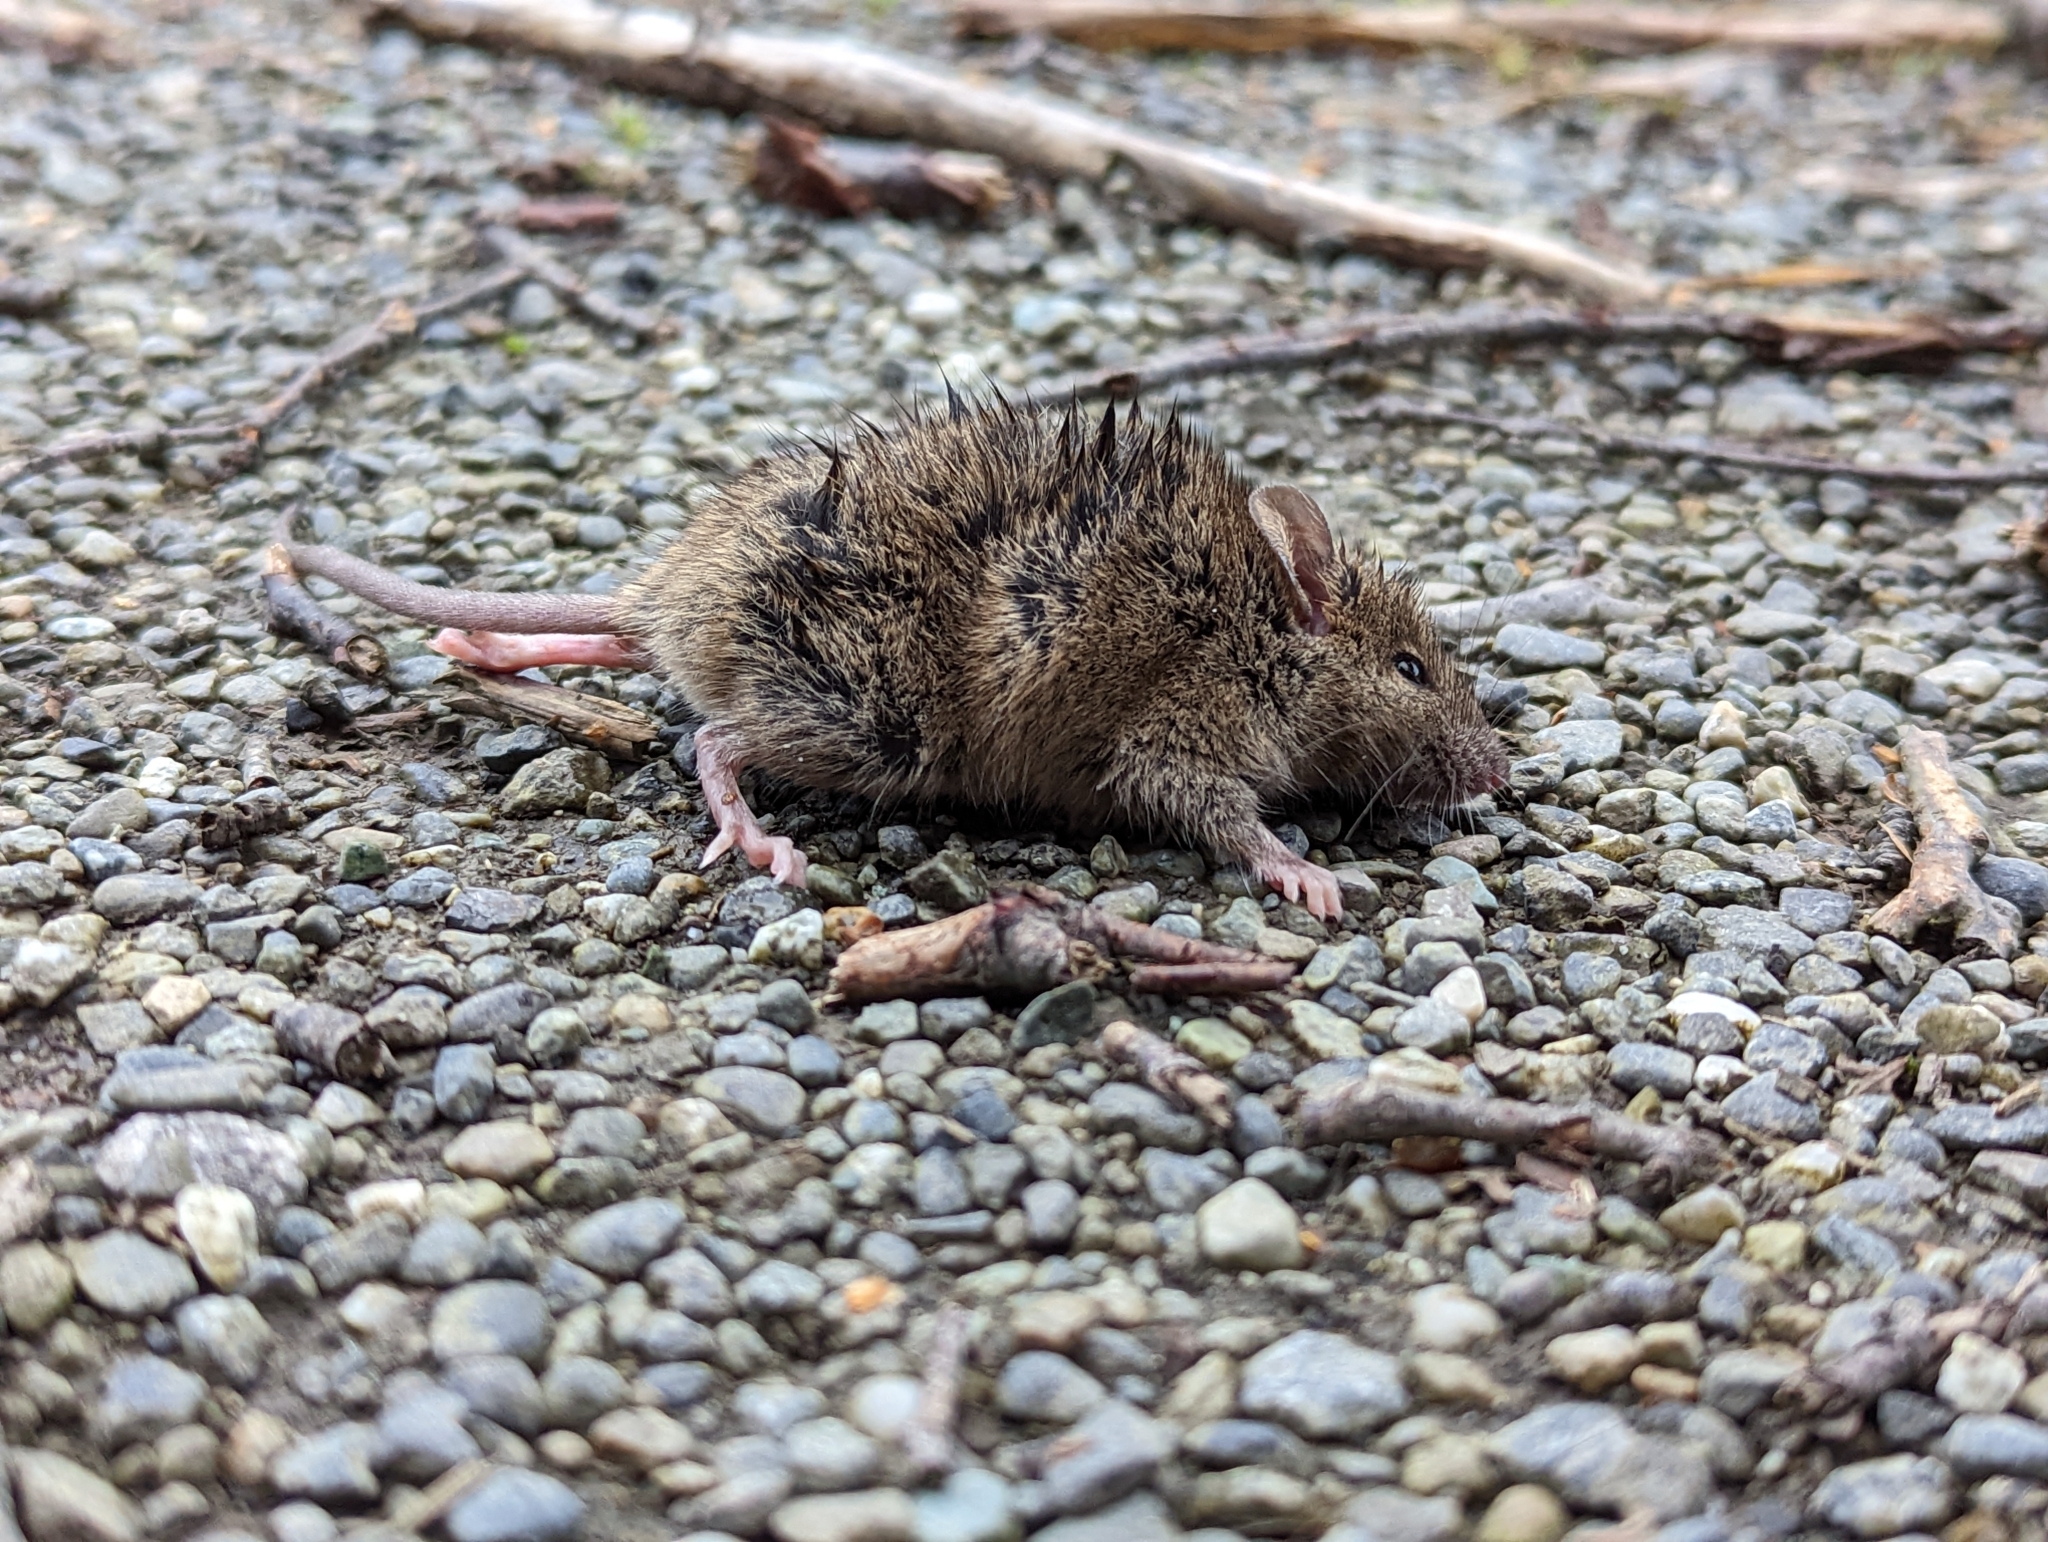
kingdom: Animalia
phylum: Chordata
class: Mammalia
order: Rodentia
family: Muridae
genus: Mus
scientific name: Mus musculus
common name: House mouse
